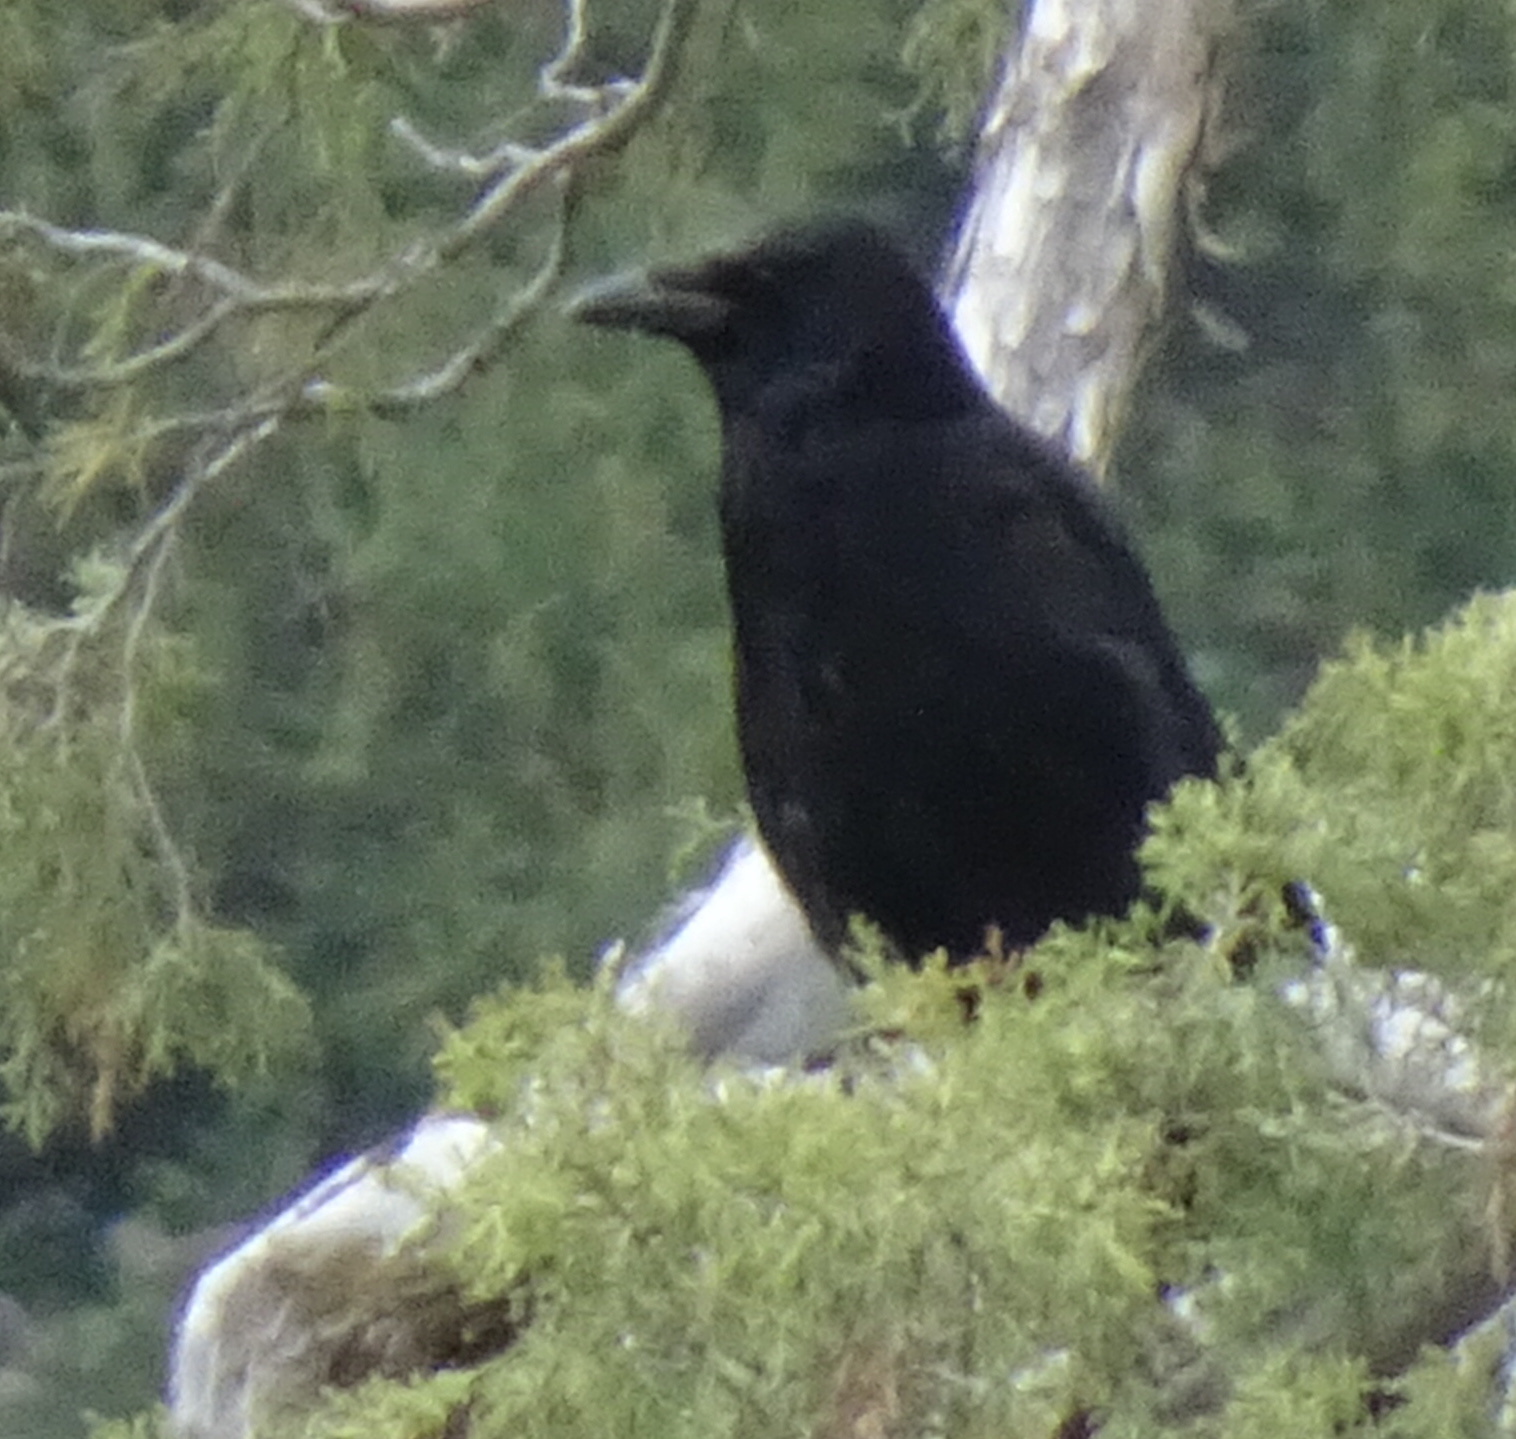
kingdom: Animalia
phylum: Chordata
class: Aves
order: Passeriformes
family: Corvidae
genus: Corvus
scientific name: Corvus corone
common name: Carrion crow
